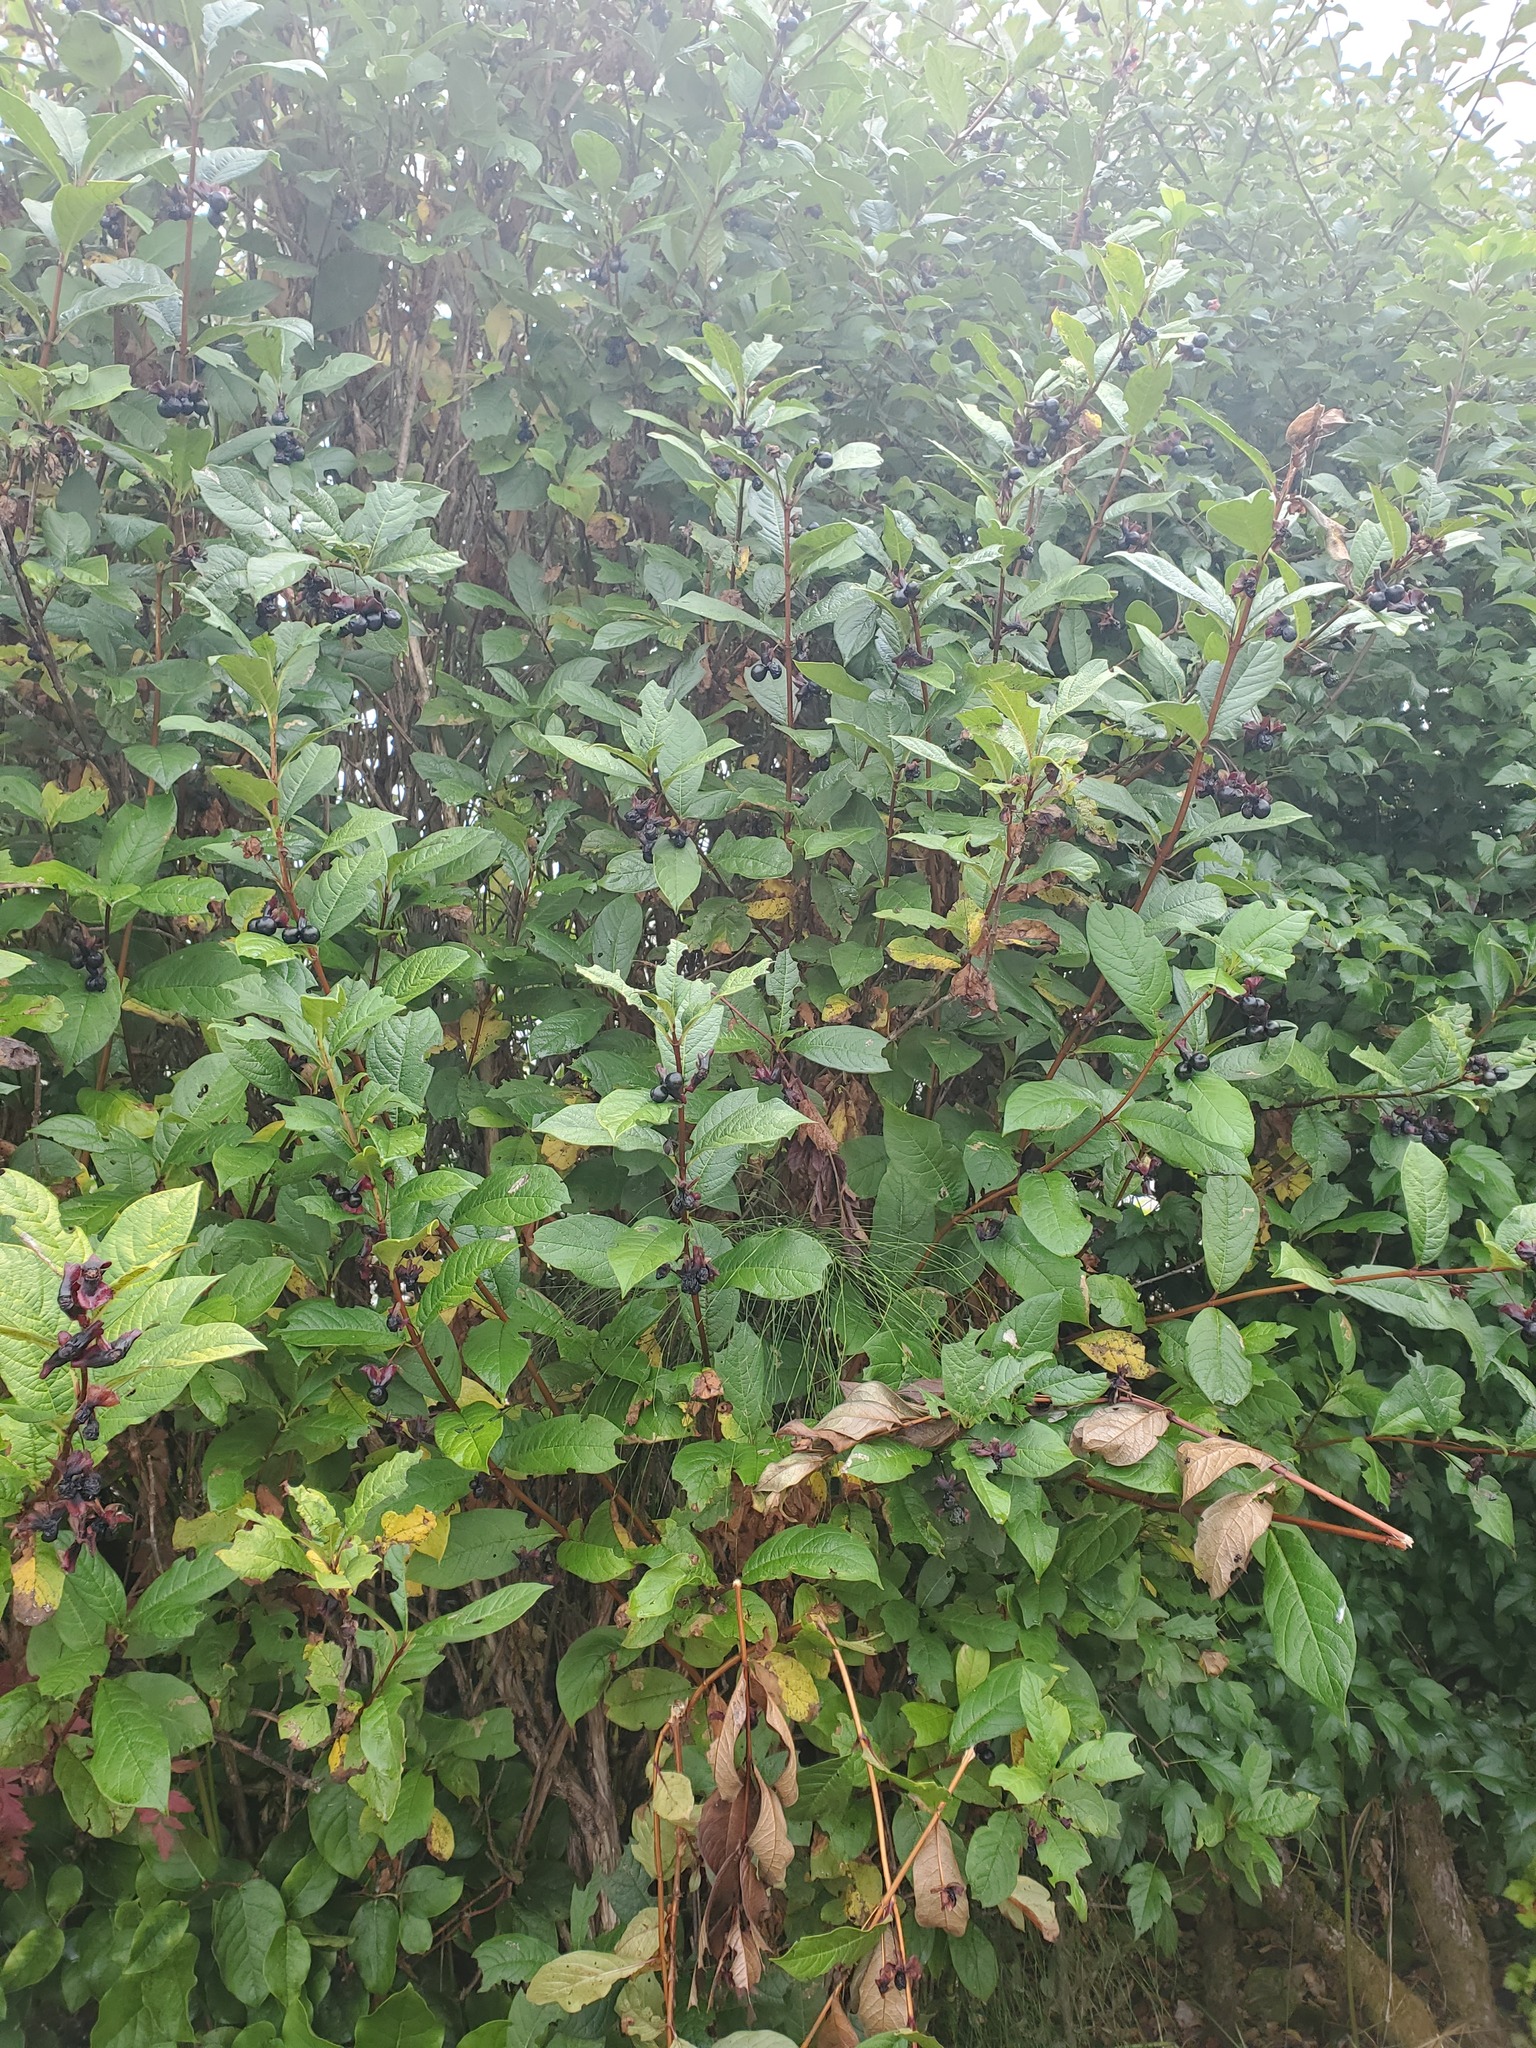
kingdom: Plantae
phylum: Tracheophyta
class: Magnoliopsida
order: Dipsacales
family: Caprifoliaceae
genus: Lonicera
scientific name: Lonicera involucrata
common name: Californian honeysuckle
